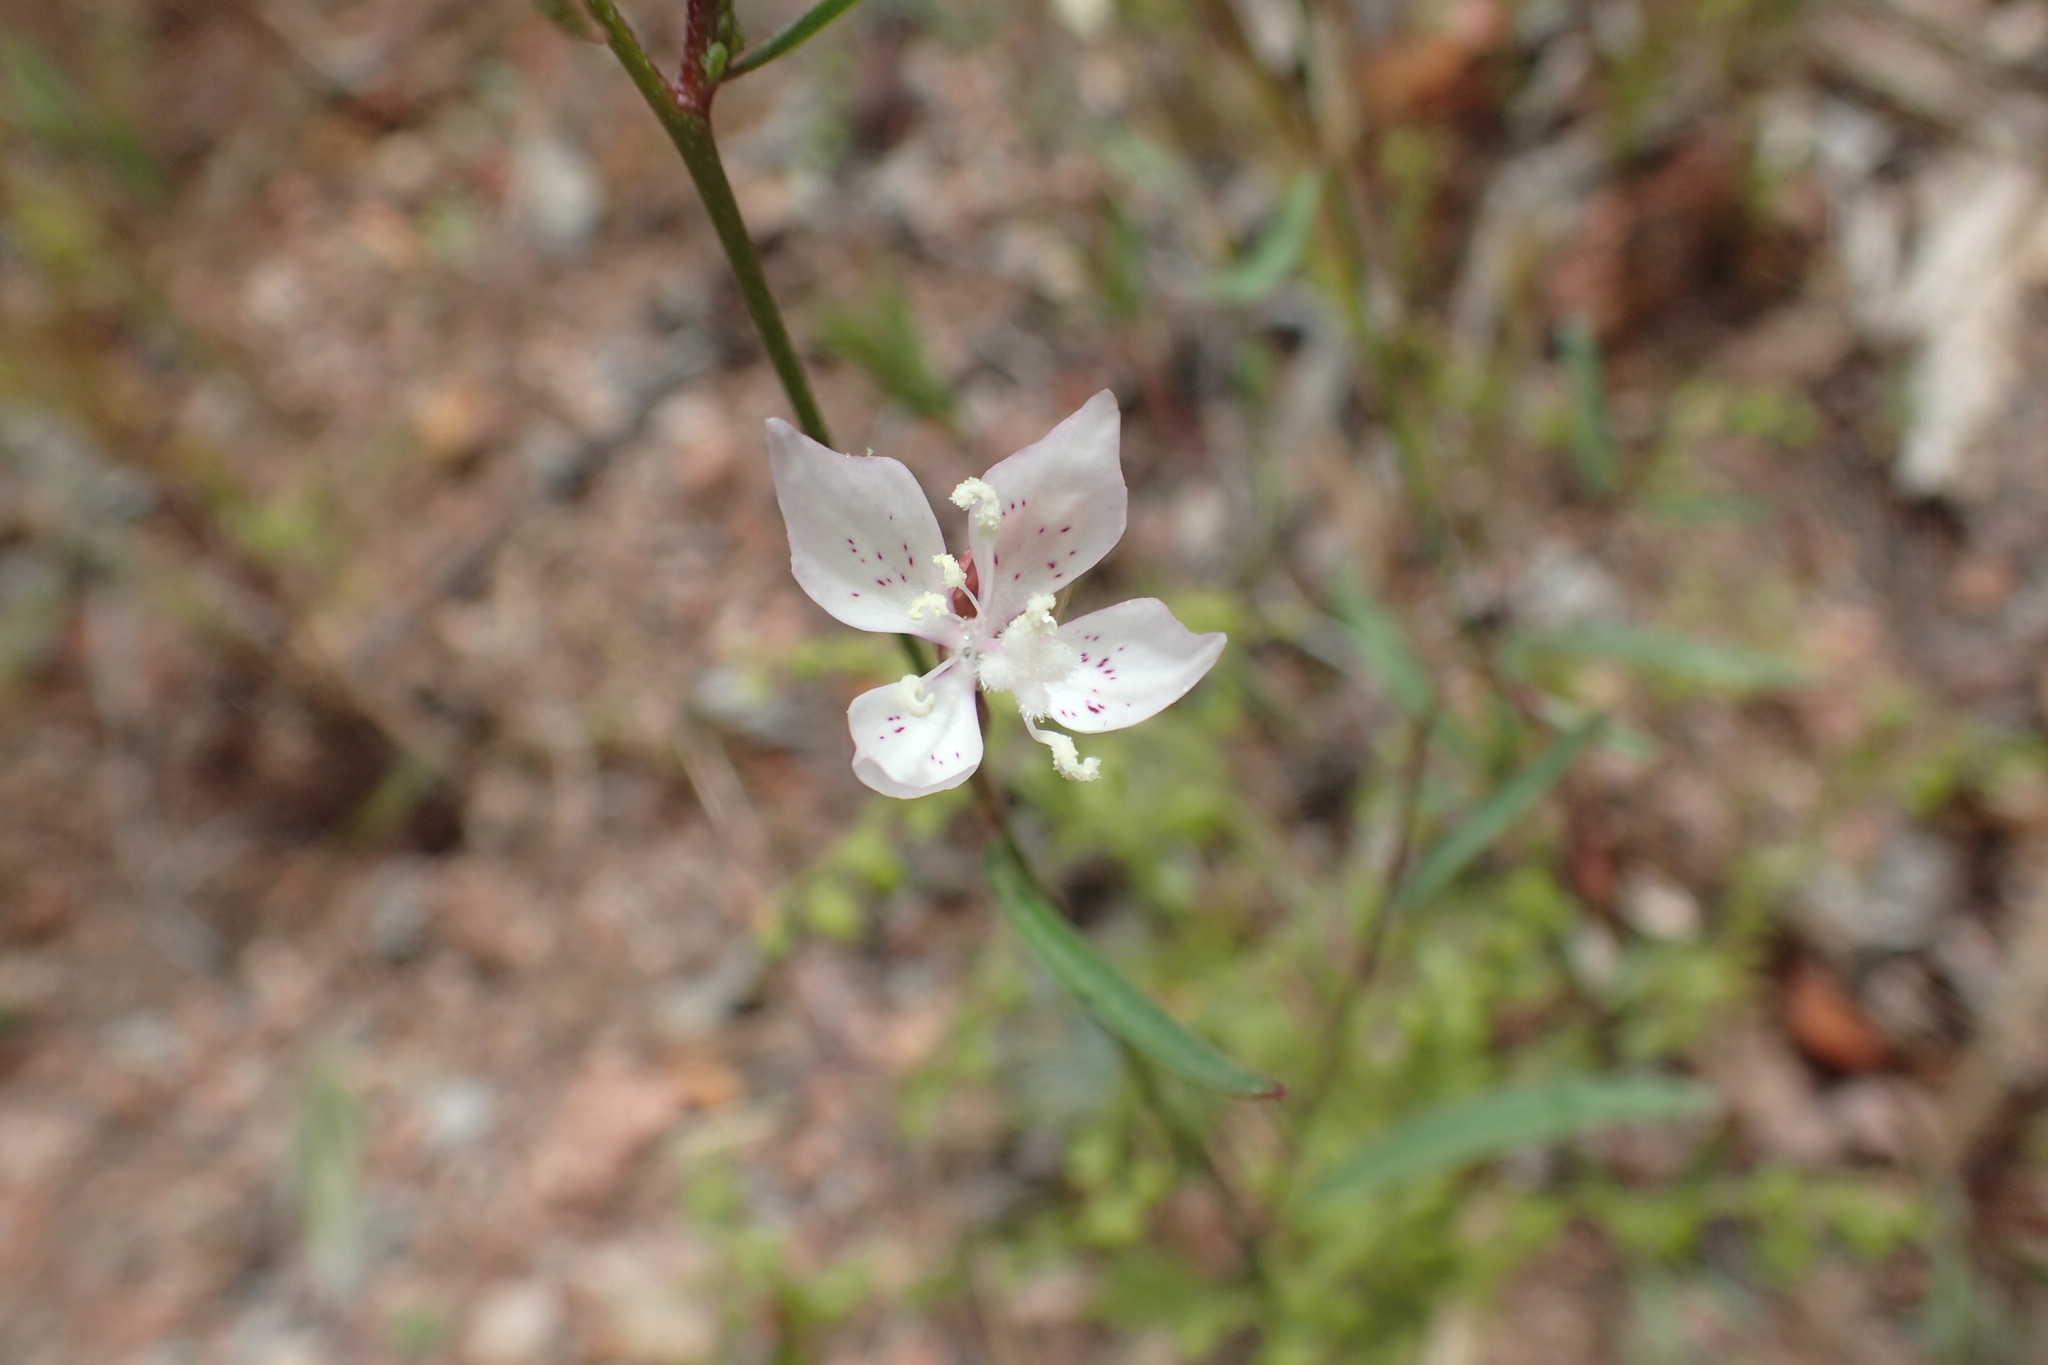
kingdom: Plantae
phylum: Tracheophyta
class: Magnoliopsida
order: Myrtales
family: Onagraceae
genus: Clarkia
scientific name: Clarkia similis
